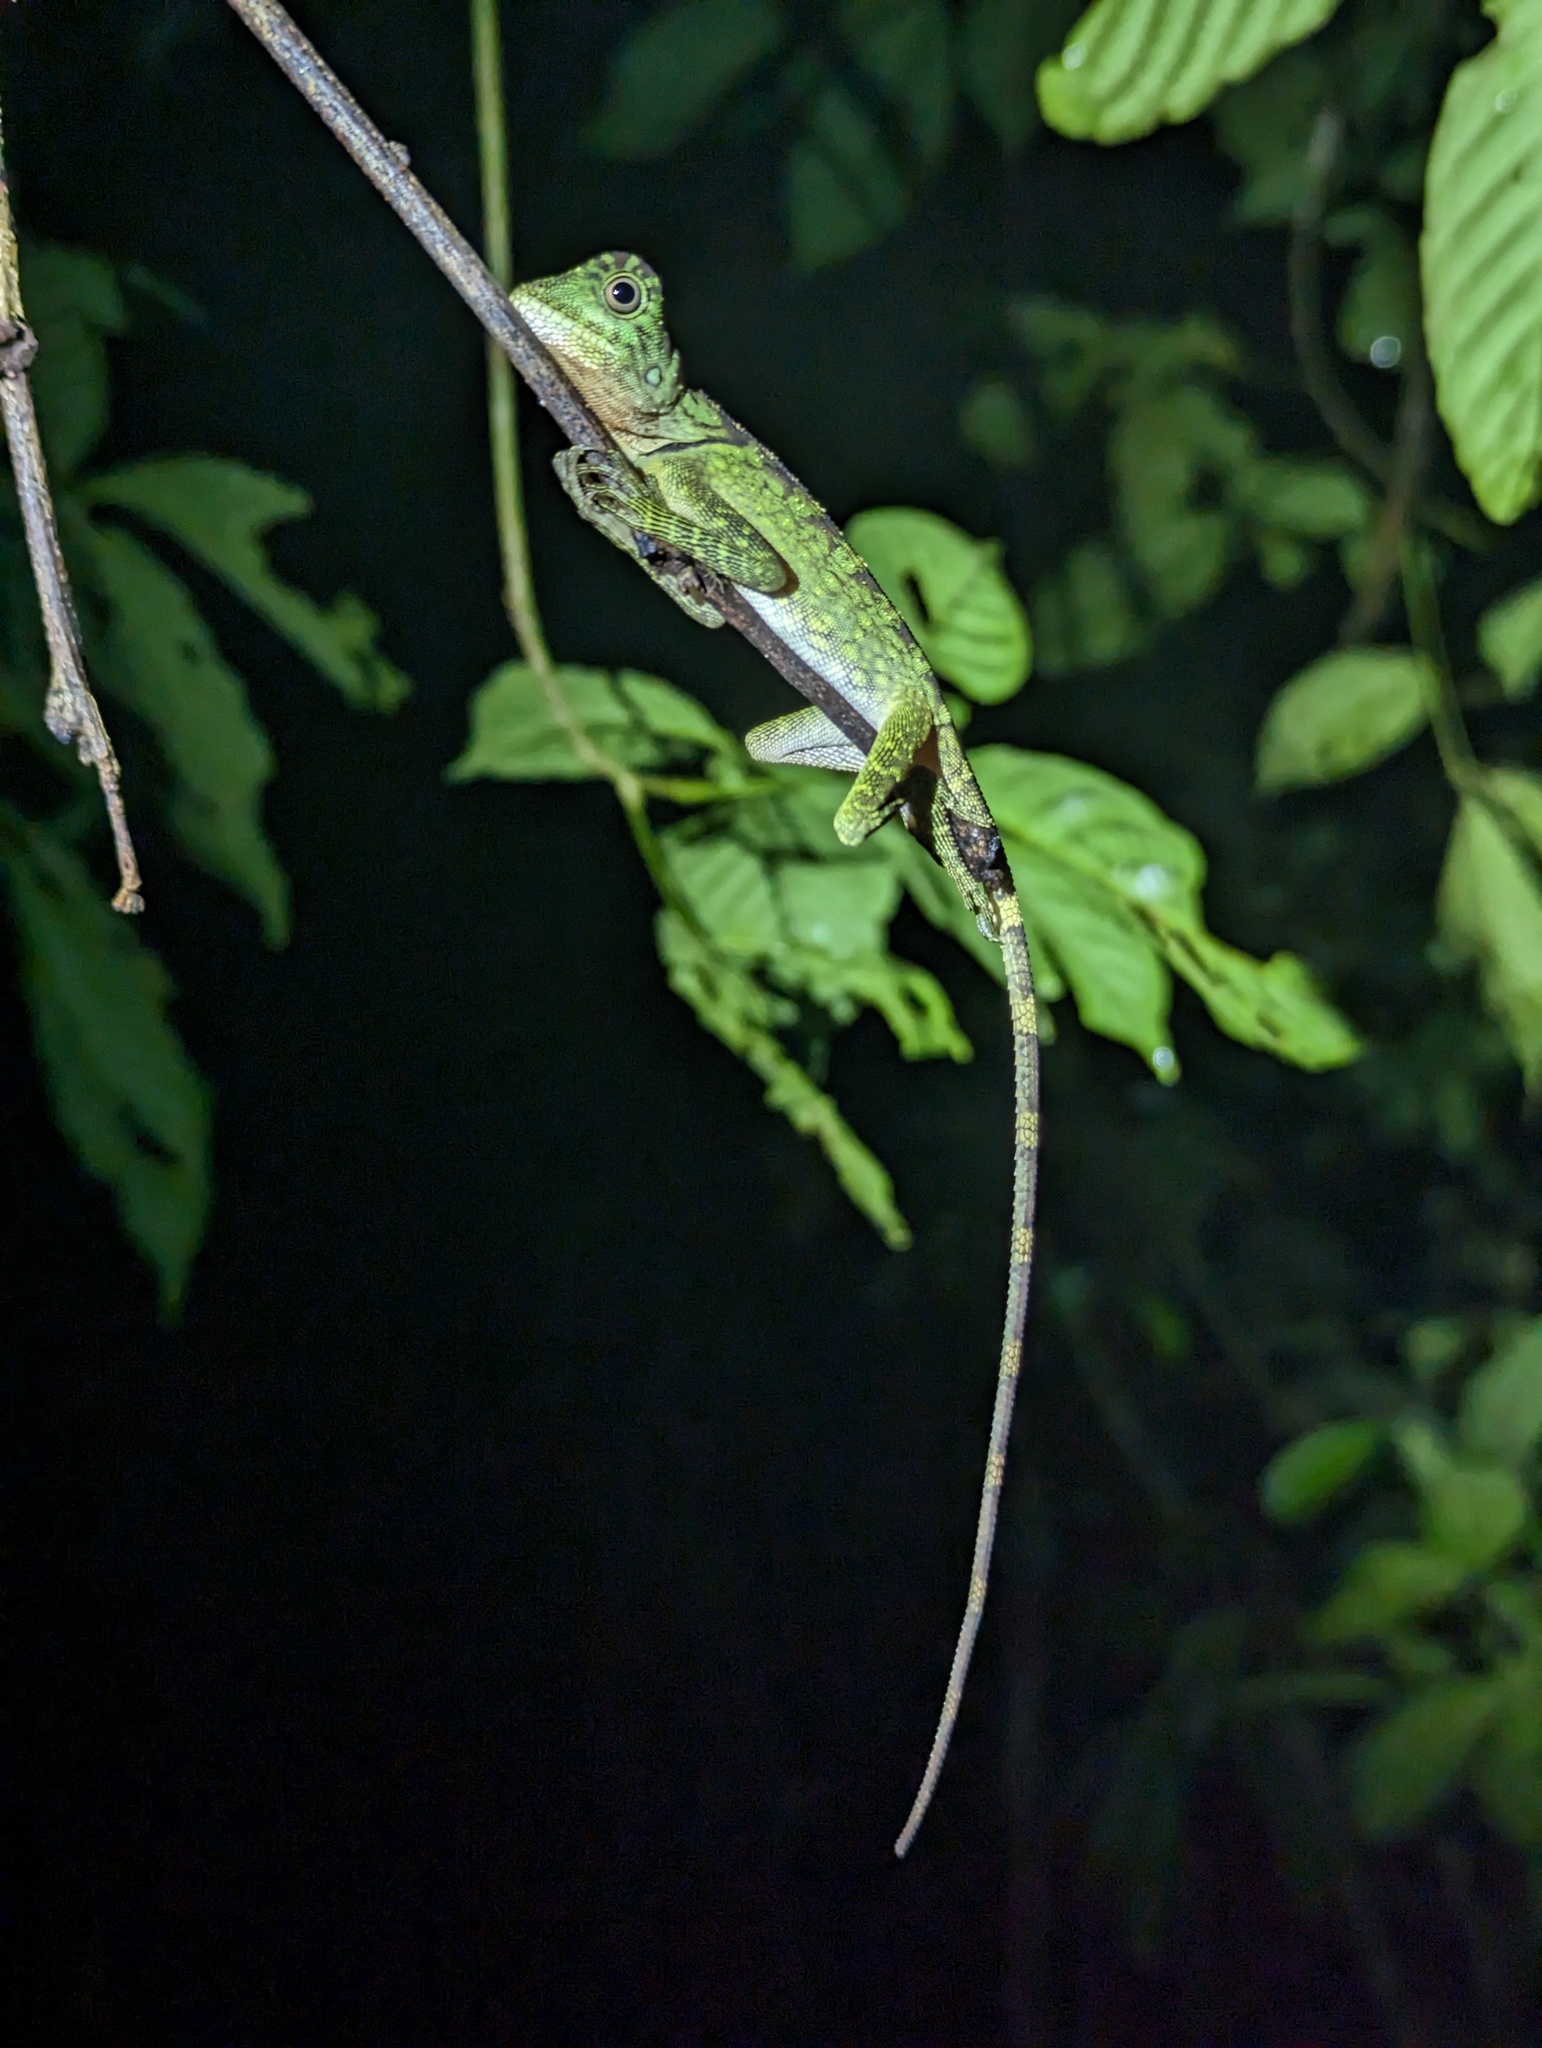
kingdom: Animalia
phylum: Chordata
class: Squamata
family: Agamidae
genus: Gonocephalus
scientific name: Gonocephalus bornensis
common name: Borneo forest dragon
